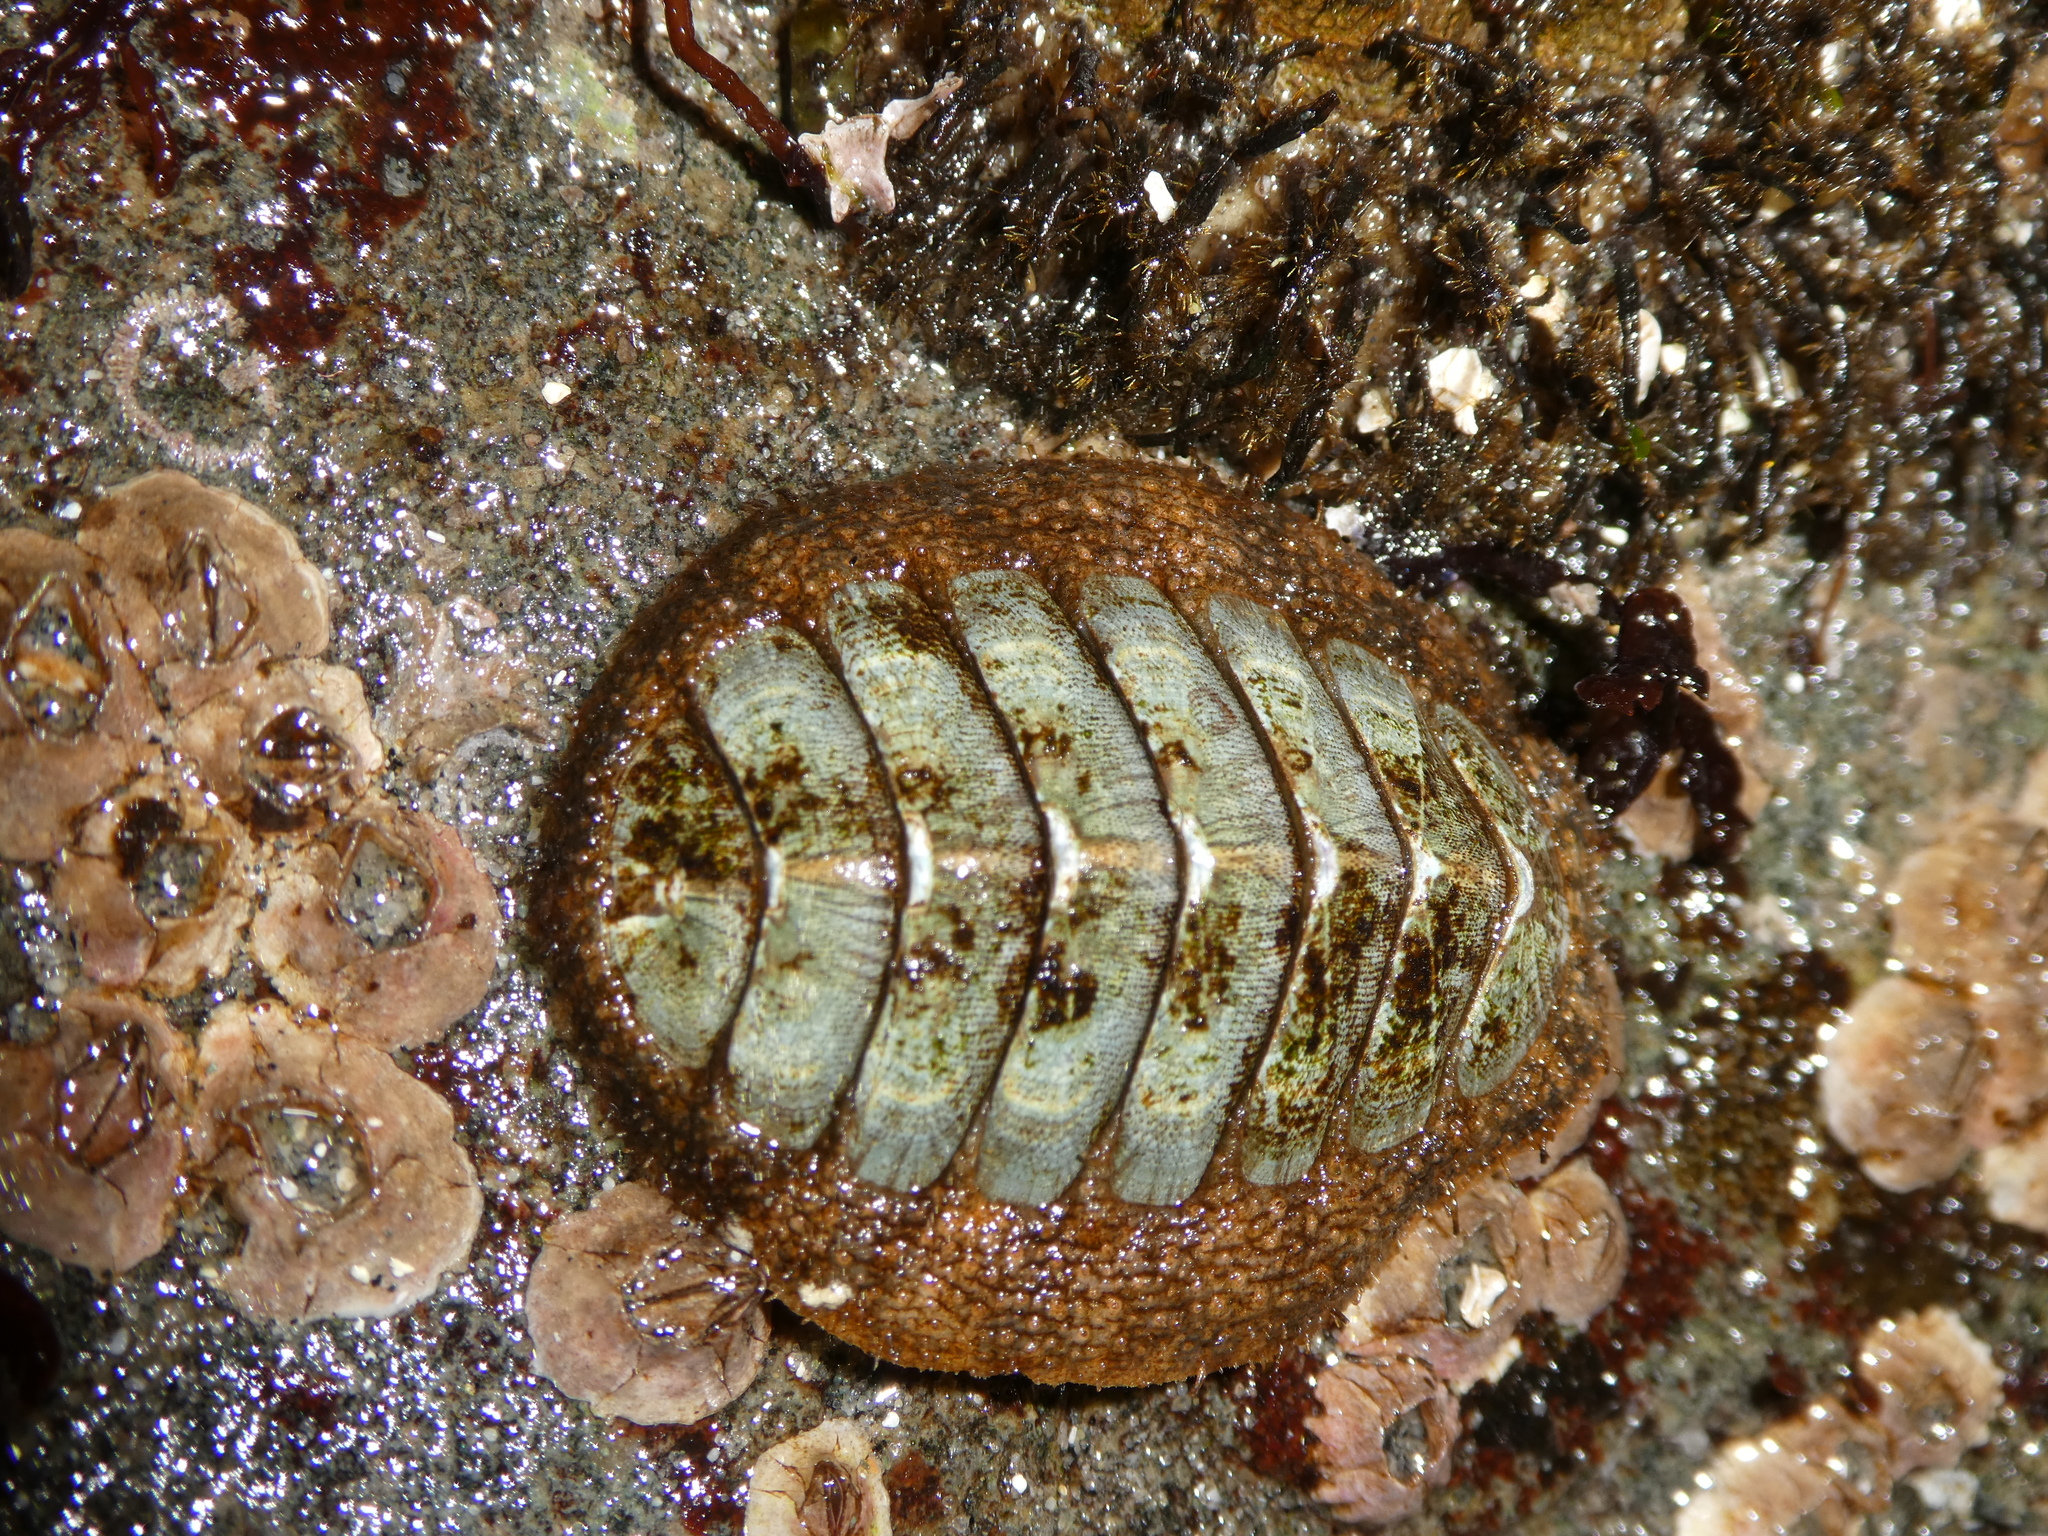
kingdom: Animalia
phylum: Mollusca
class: Polyplacophora
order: Chitonida
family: Mopaliidae
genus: Mopalia
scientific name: Mopalia lignosa
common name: Woody chiton
